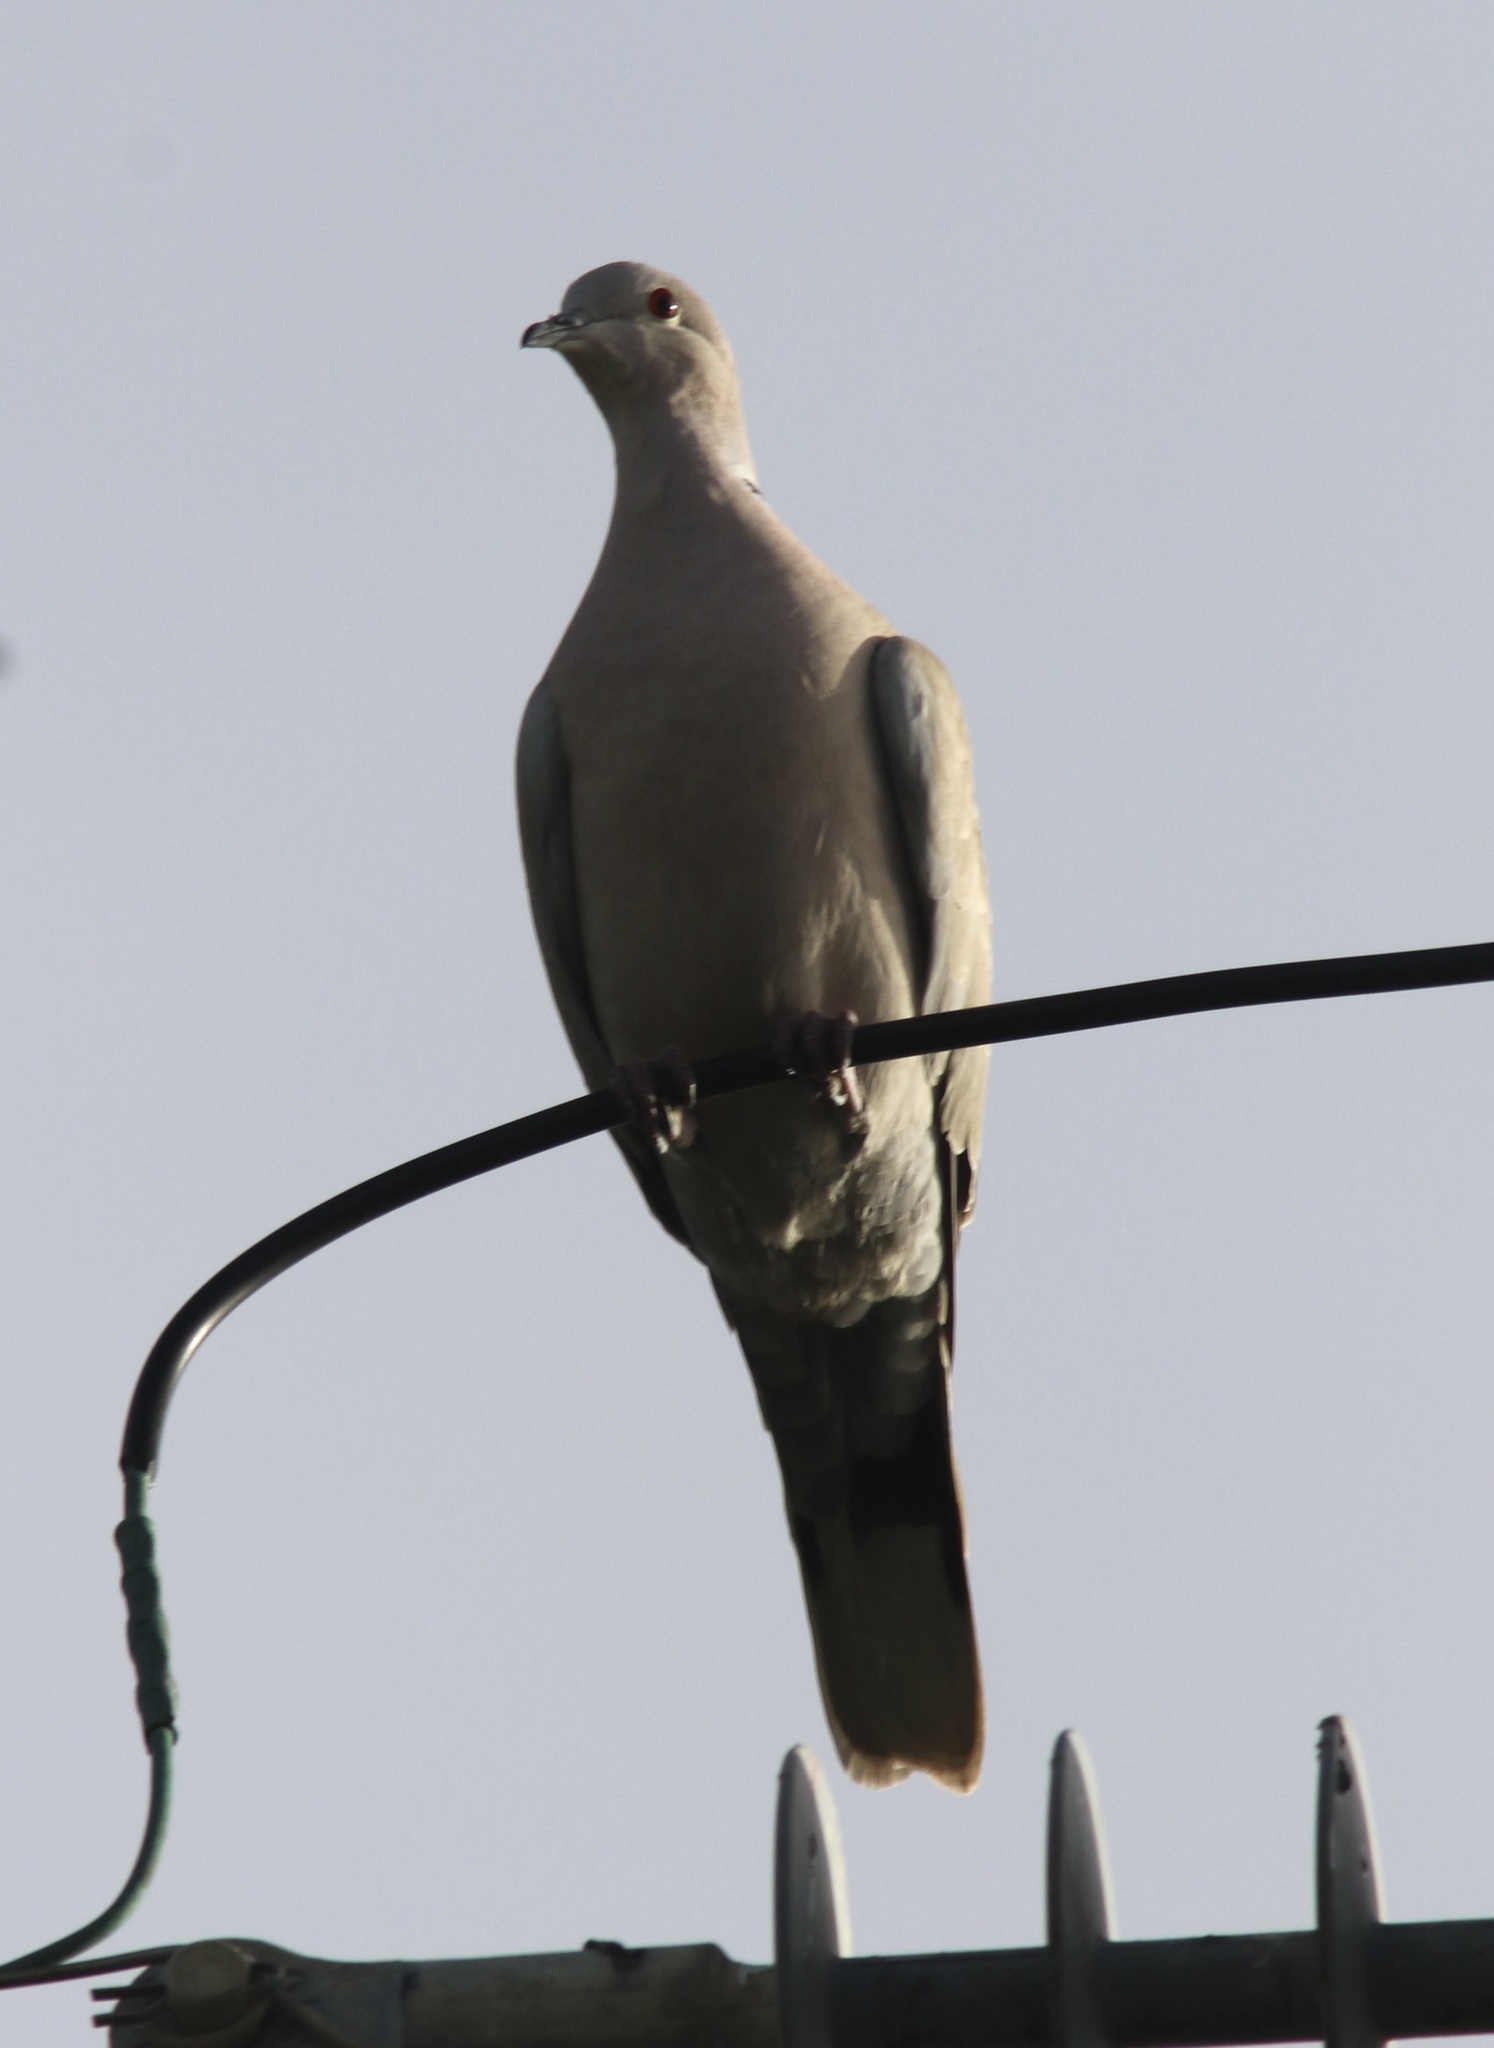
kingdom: Animalia
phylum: Chordata
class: Aves
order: Columbiformes
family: Columbidae
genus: Streptopelia
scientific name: Streptopelia decaocto
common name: Eurasian collared dove
